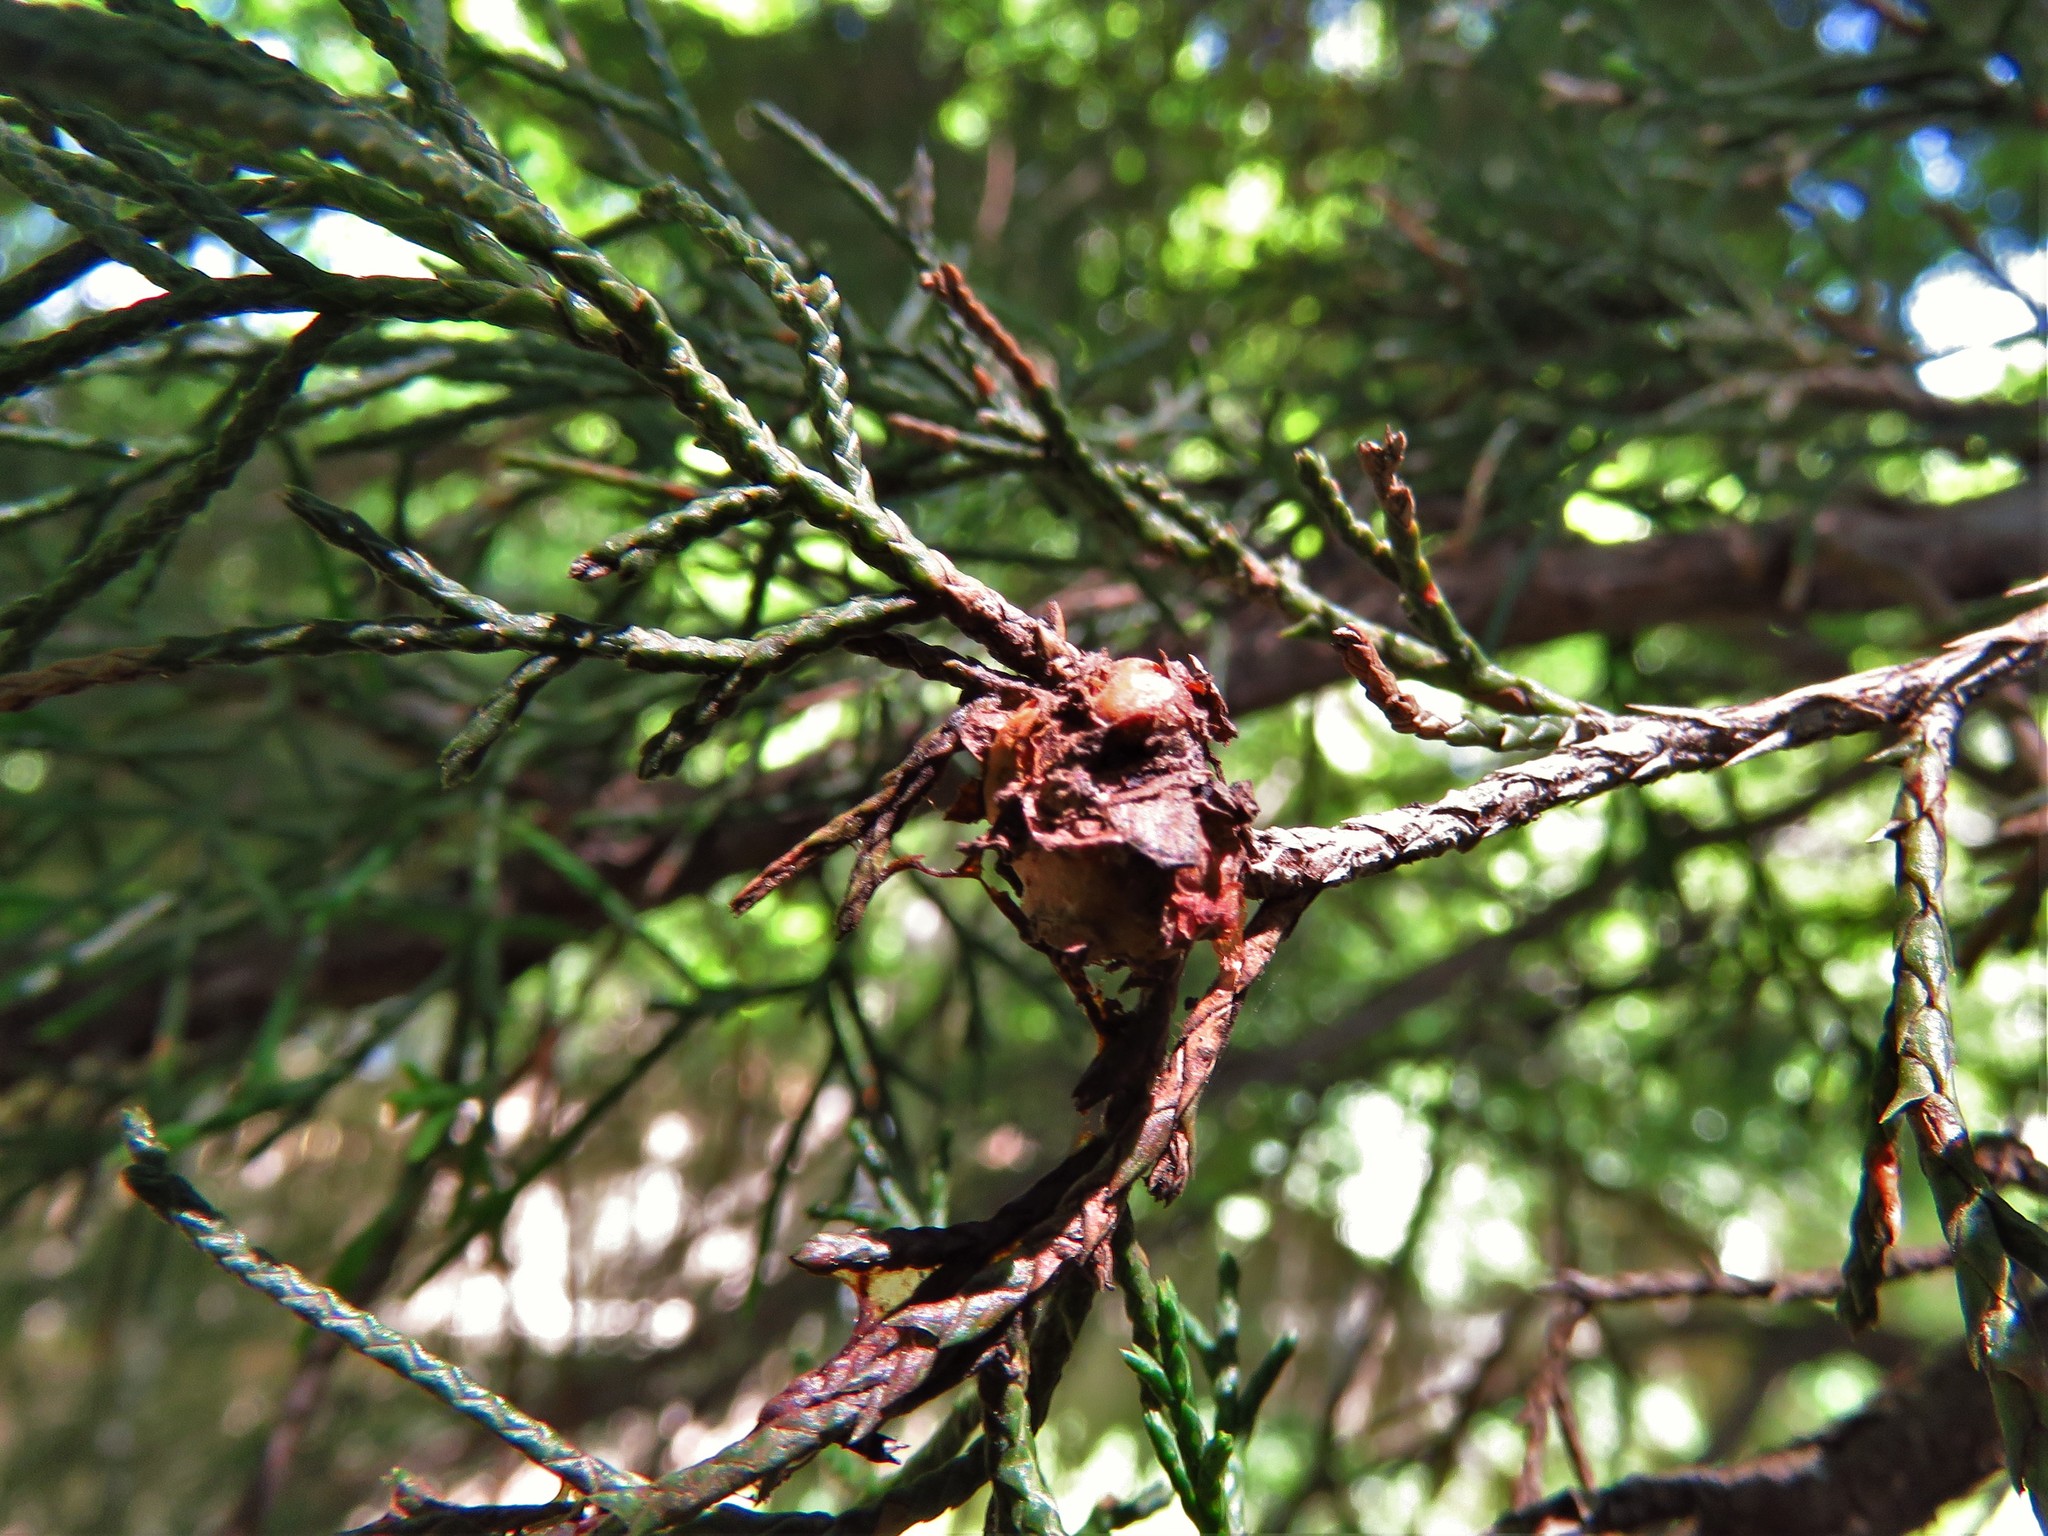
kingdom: Fungi
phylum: Basidiomycota
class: Pucciniomycetes
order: Pucciniales
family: Gymnosporangiaceae
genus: Gymnosporangium
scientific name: Gymnosporangium juniperi-virginianae
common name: Juniper-apple rust
